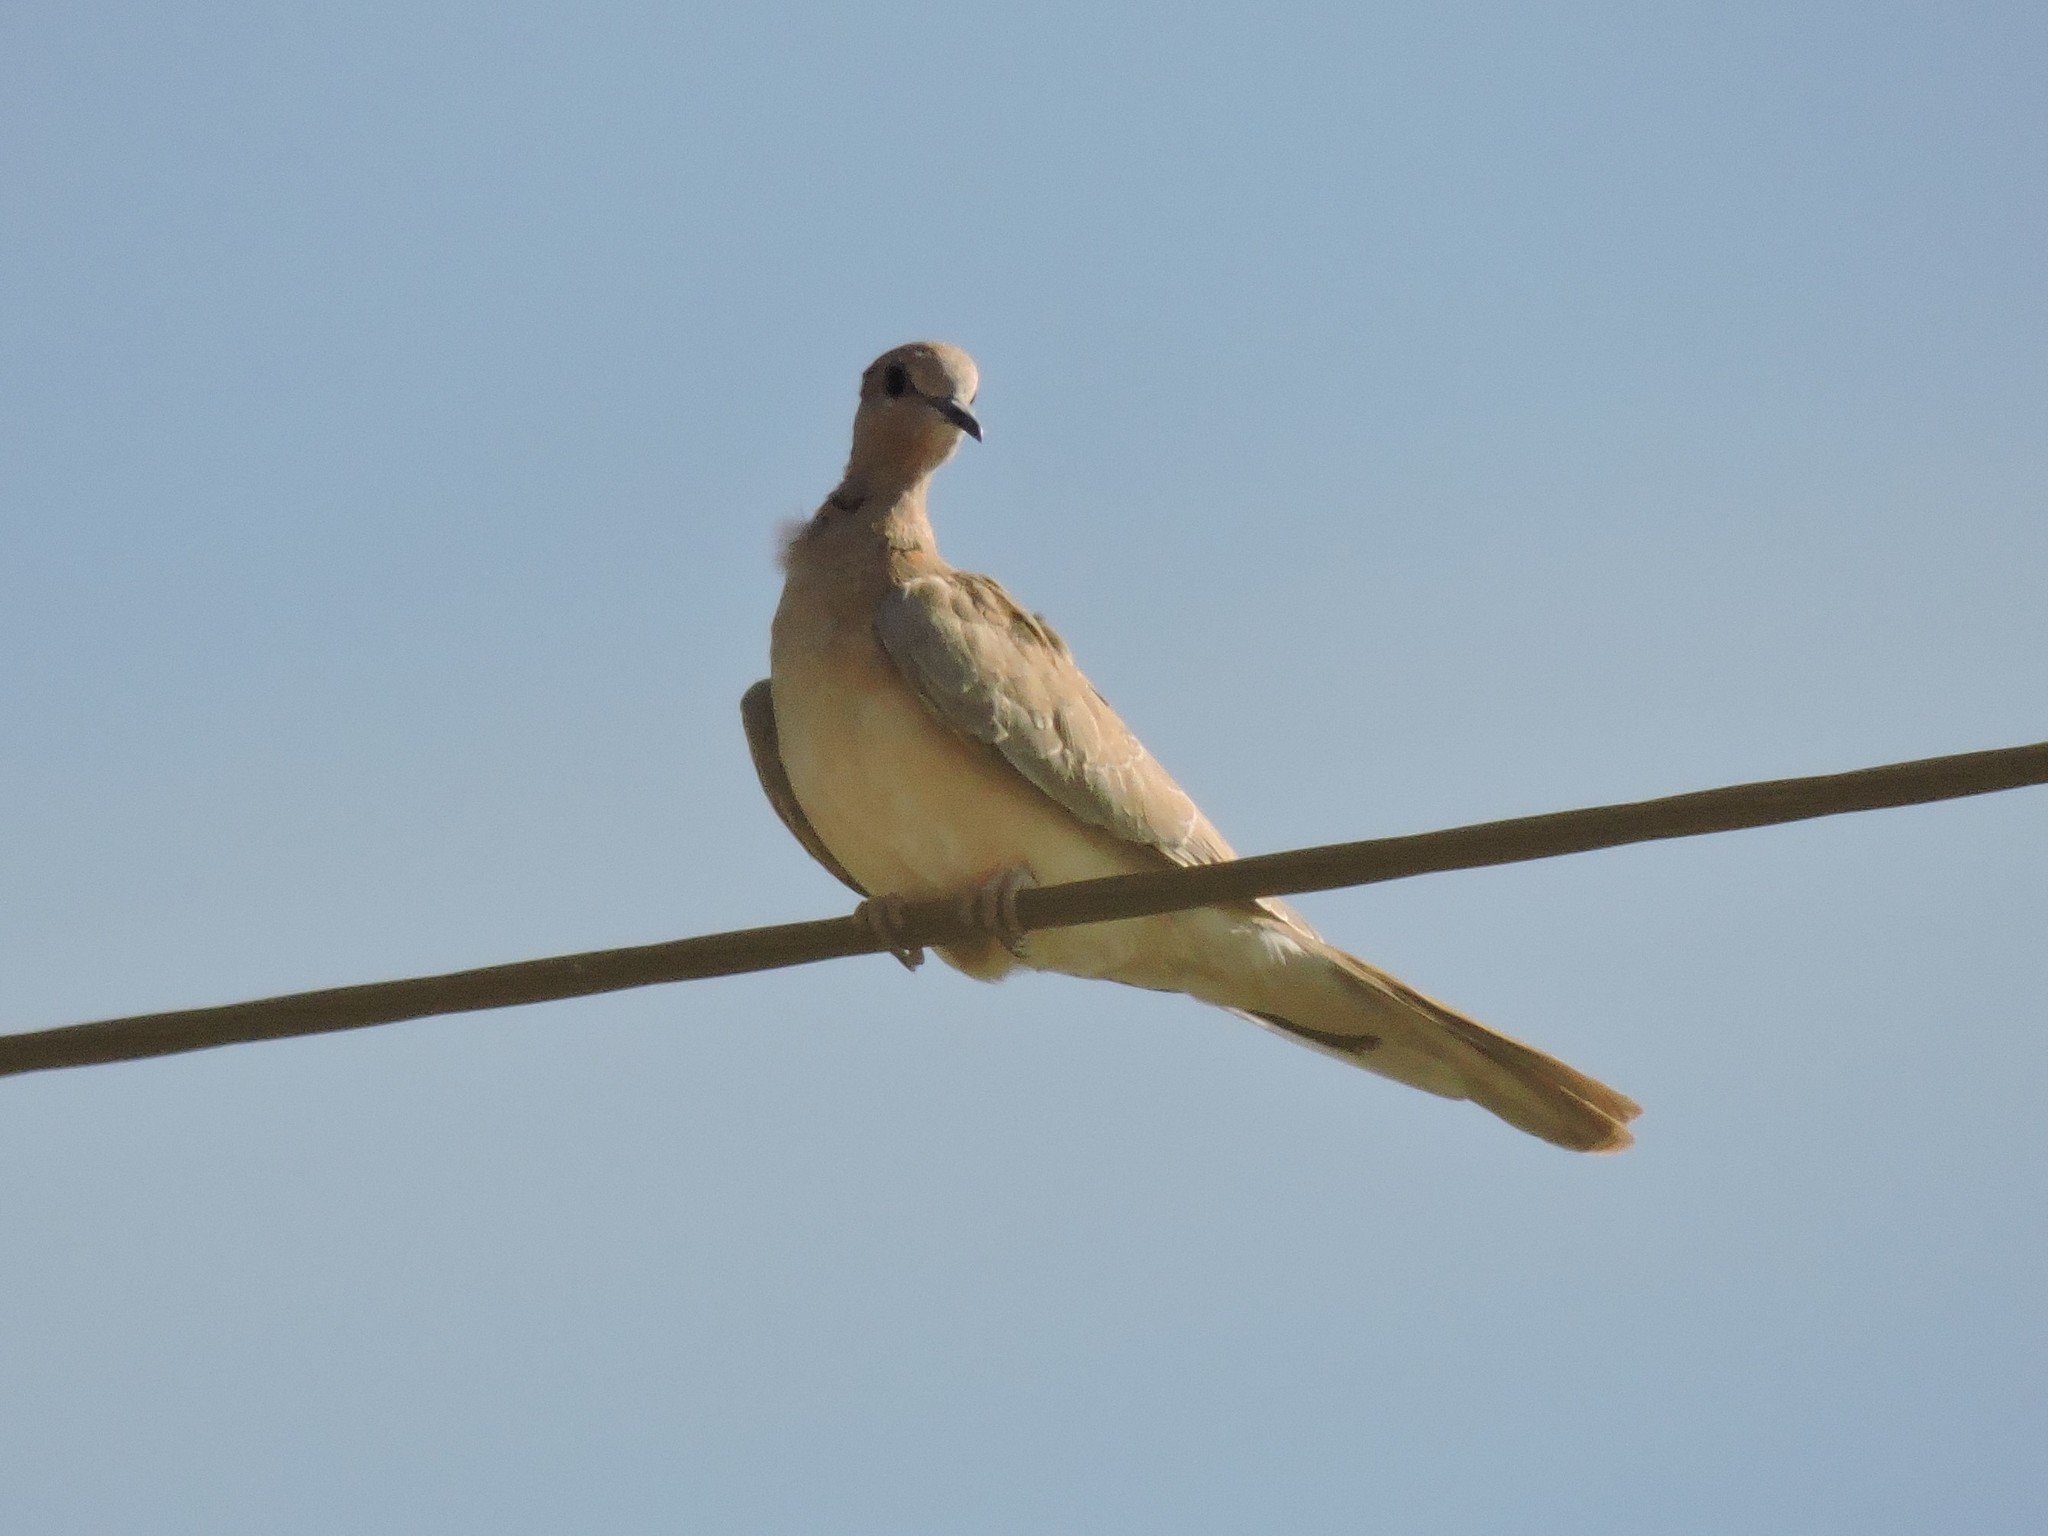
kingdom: Animalia
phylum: Chordata
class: Aves
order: Columbiformes
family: Columbidae
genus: Spilopelia
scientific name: Spilopelia senegalensis
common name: Laughing dove
